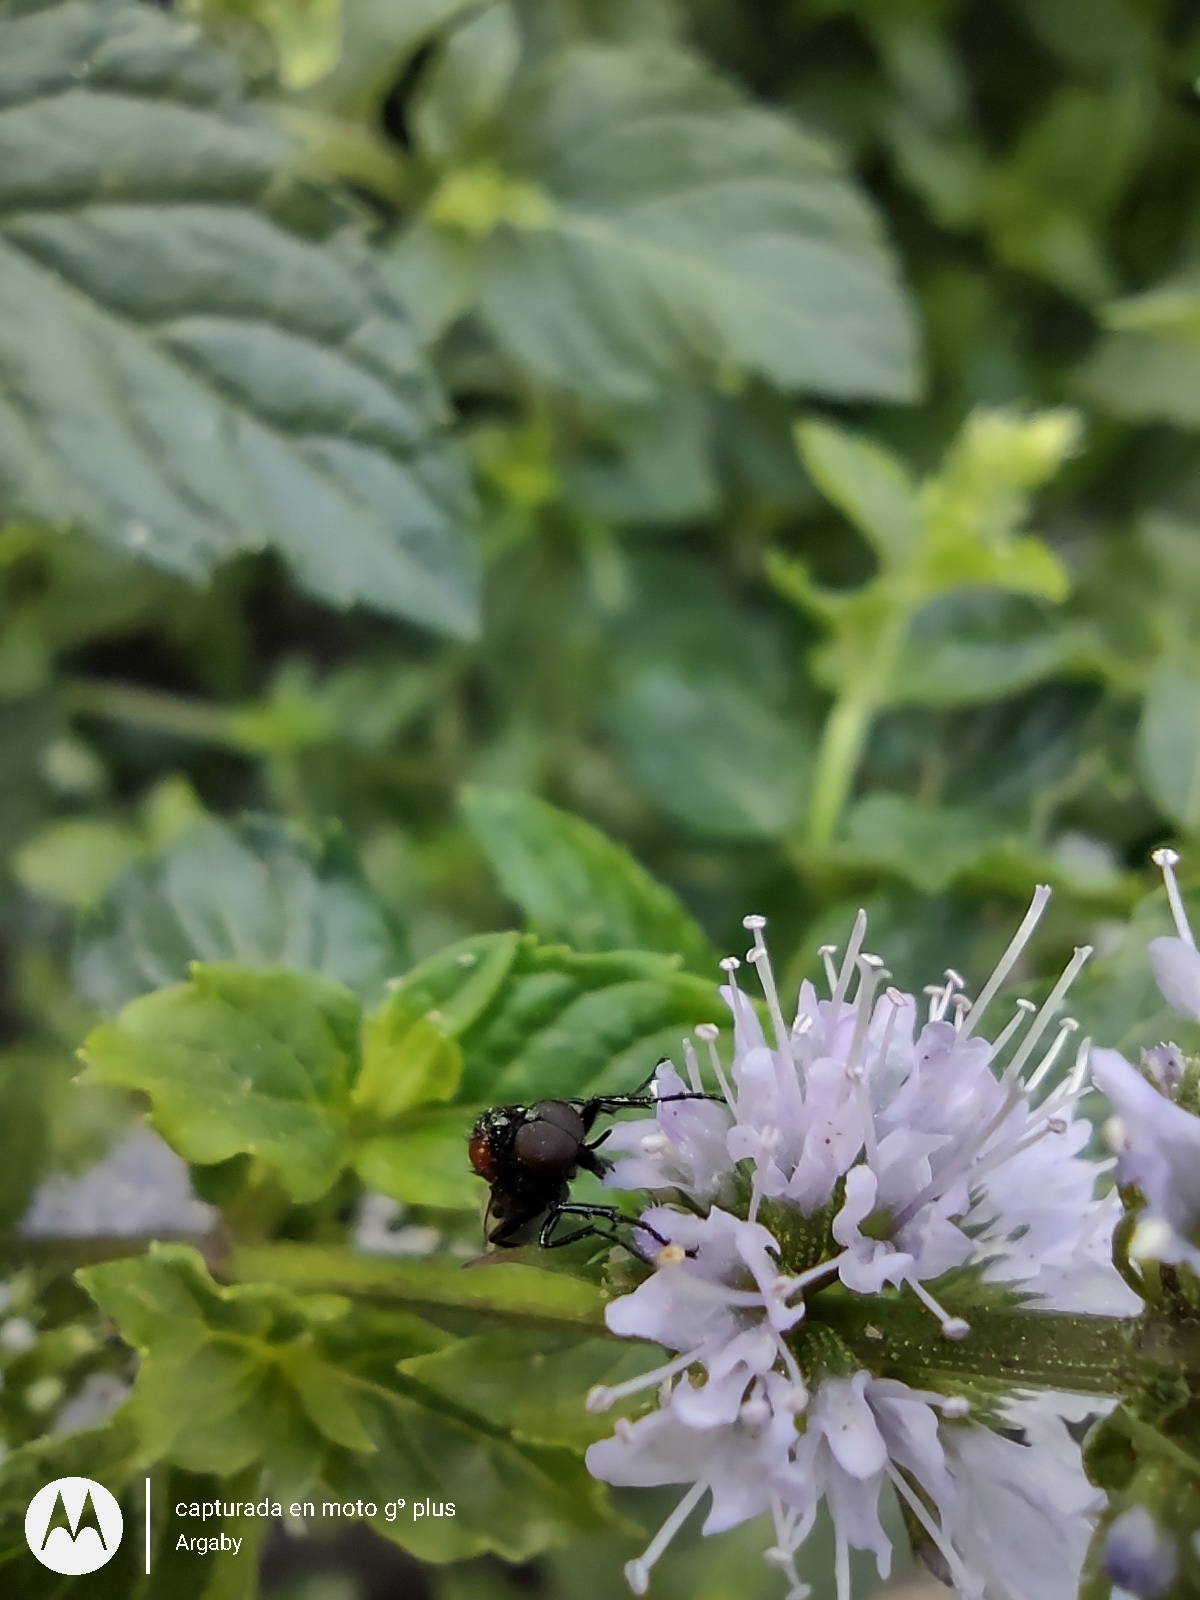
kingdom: Animalia
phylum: Arthropoda
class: Insecta
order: Diptera
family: Bibionidae
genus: Dilophus
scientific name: Dilophus pectoralis
